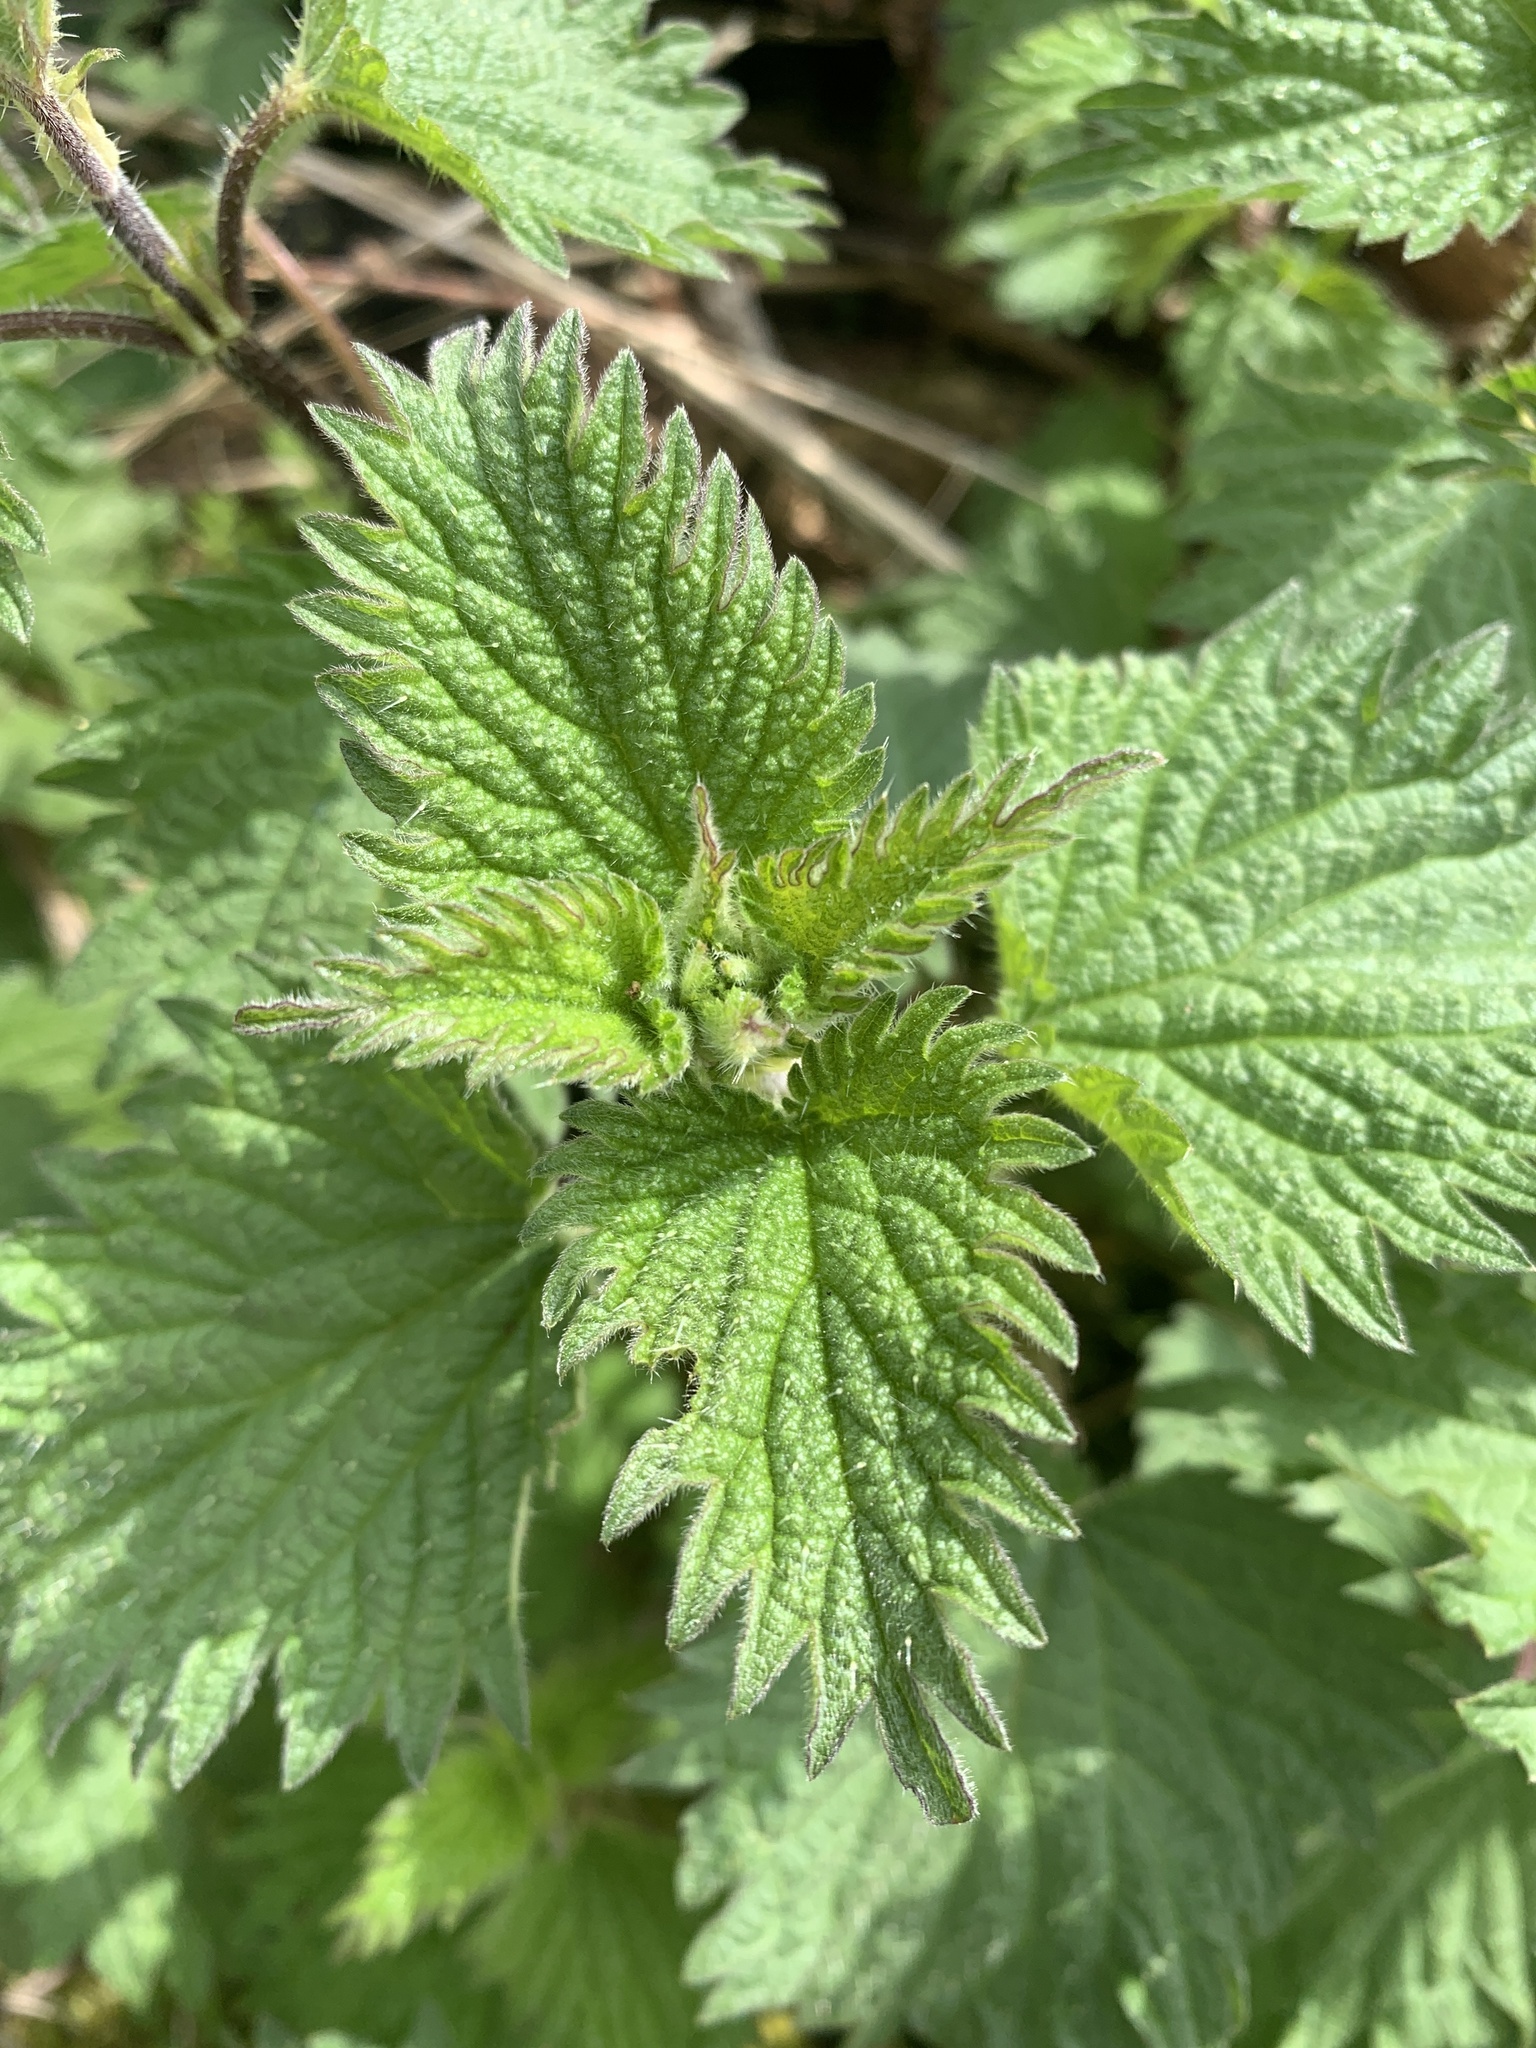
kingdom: Plantae
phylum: Tracheophyta
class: Magnoliopsida
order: Rosales
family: Urticaceae
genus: Urtica
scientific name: Urtica dioica
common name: Common nettle
